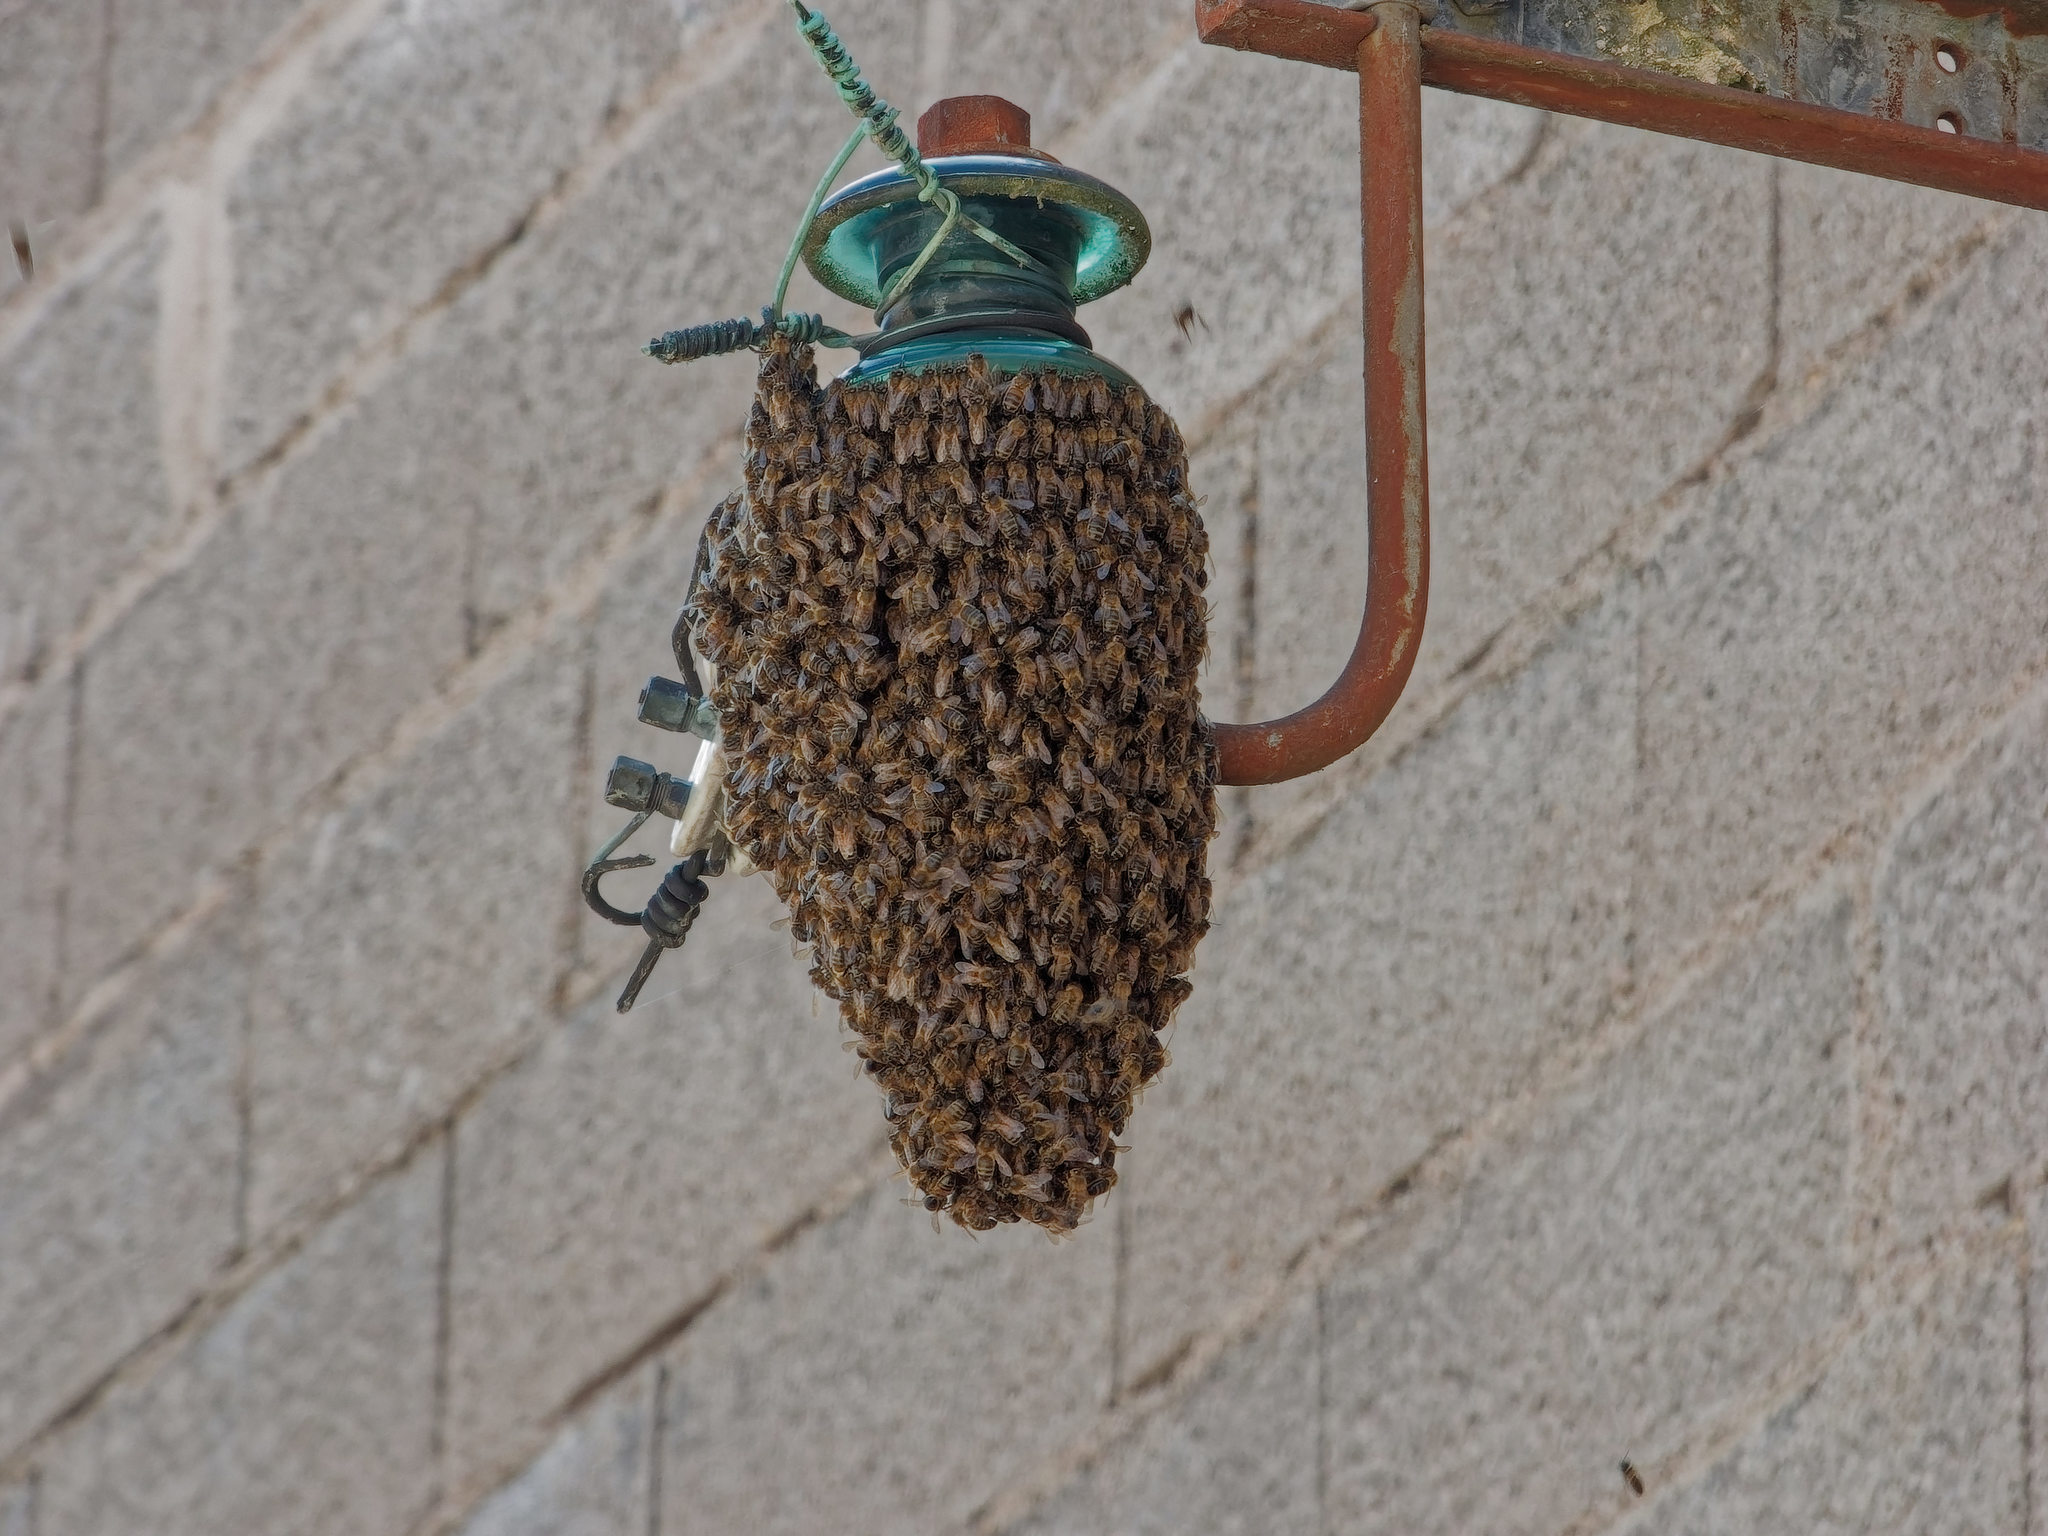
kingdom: Animalia
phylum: Arthropoda
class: Insecta
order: Hymenoptera
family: Apidae
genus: Apis
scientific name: Apis mellifera
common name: Honey bee
